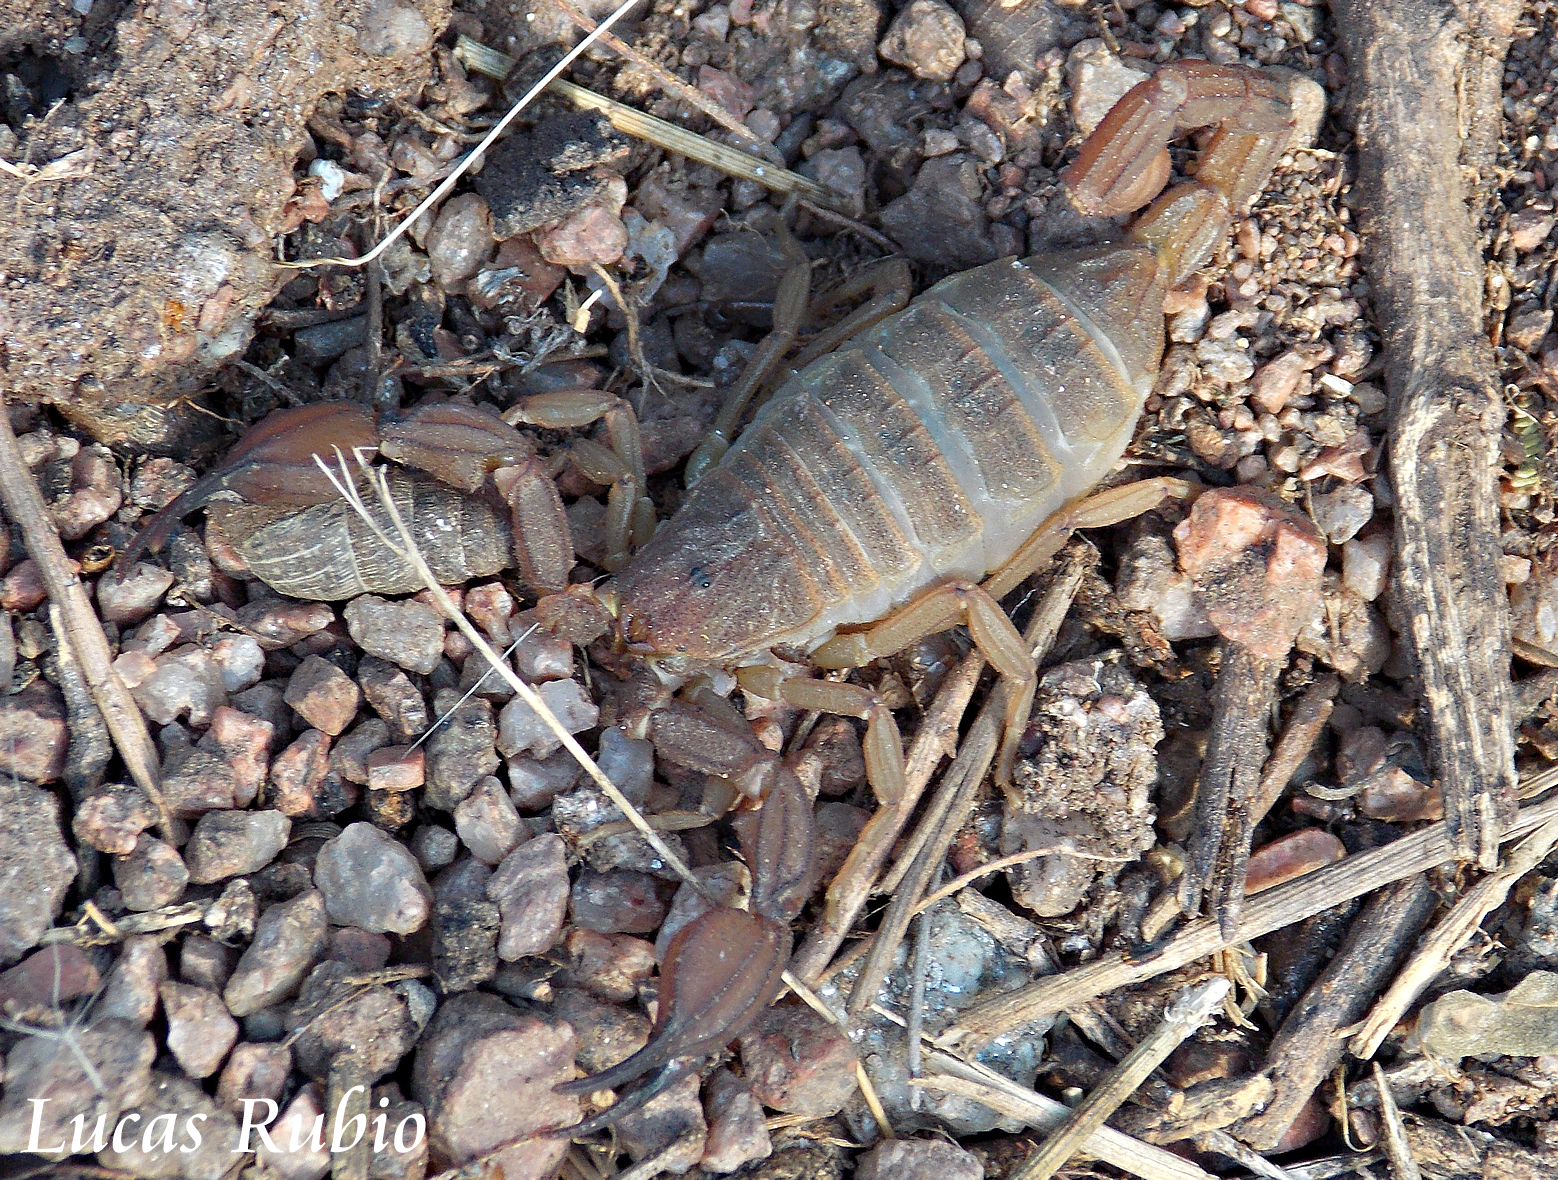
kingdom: Animalia
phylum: Arthropoda
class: Arachnida
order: Scorpiones
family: Buthidae
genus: Zabius
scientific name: Zabius fuscus
